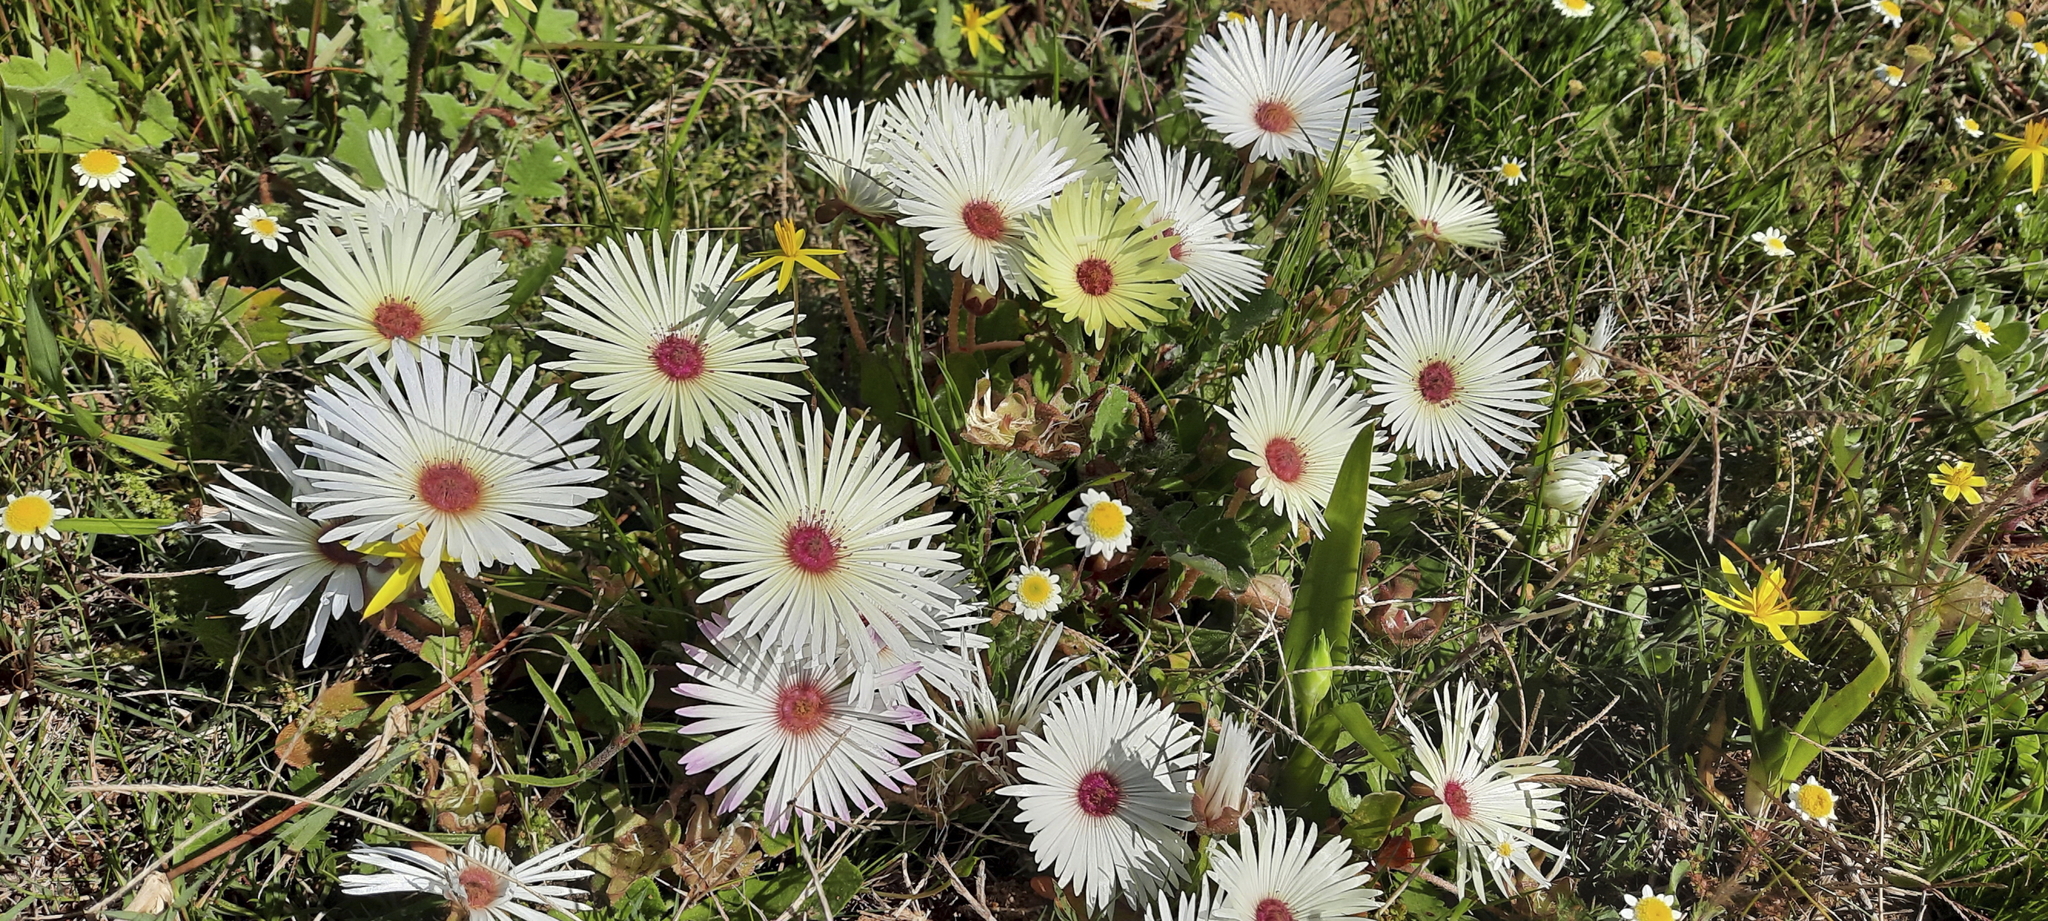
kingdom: Plantae
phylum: Tracheophyta
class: Magnoliopsida
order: Caryophyllales
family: Aizoaceae
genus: Cleretum
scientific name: Cleretum bellidiforme
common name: Livingstone daisy
